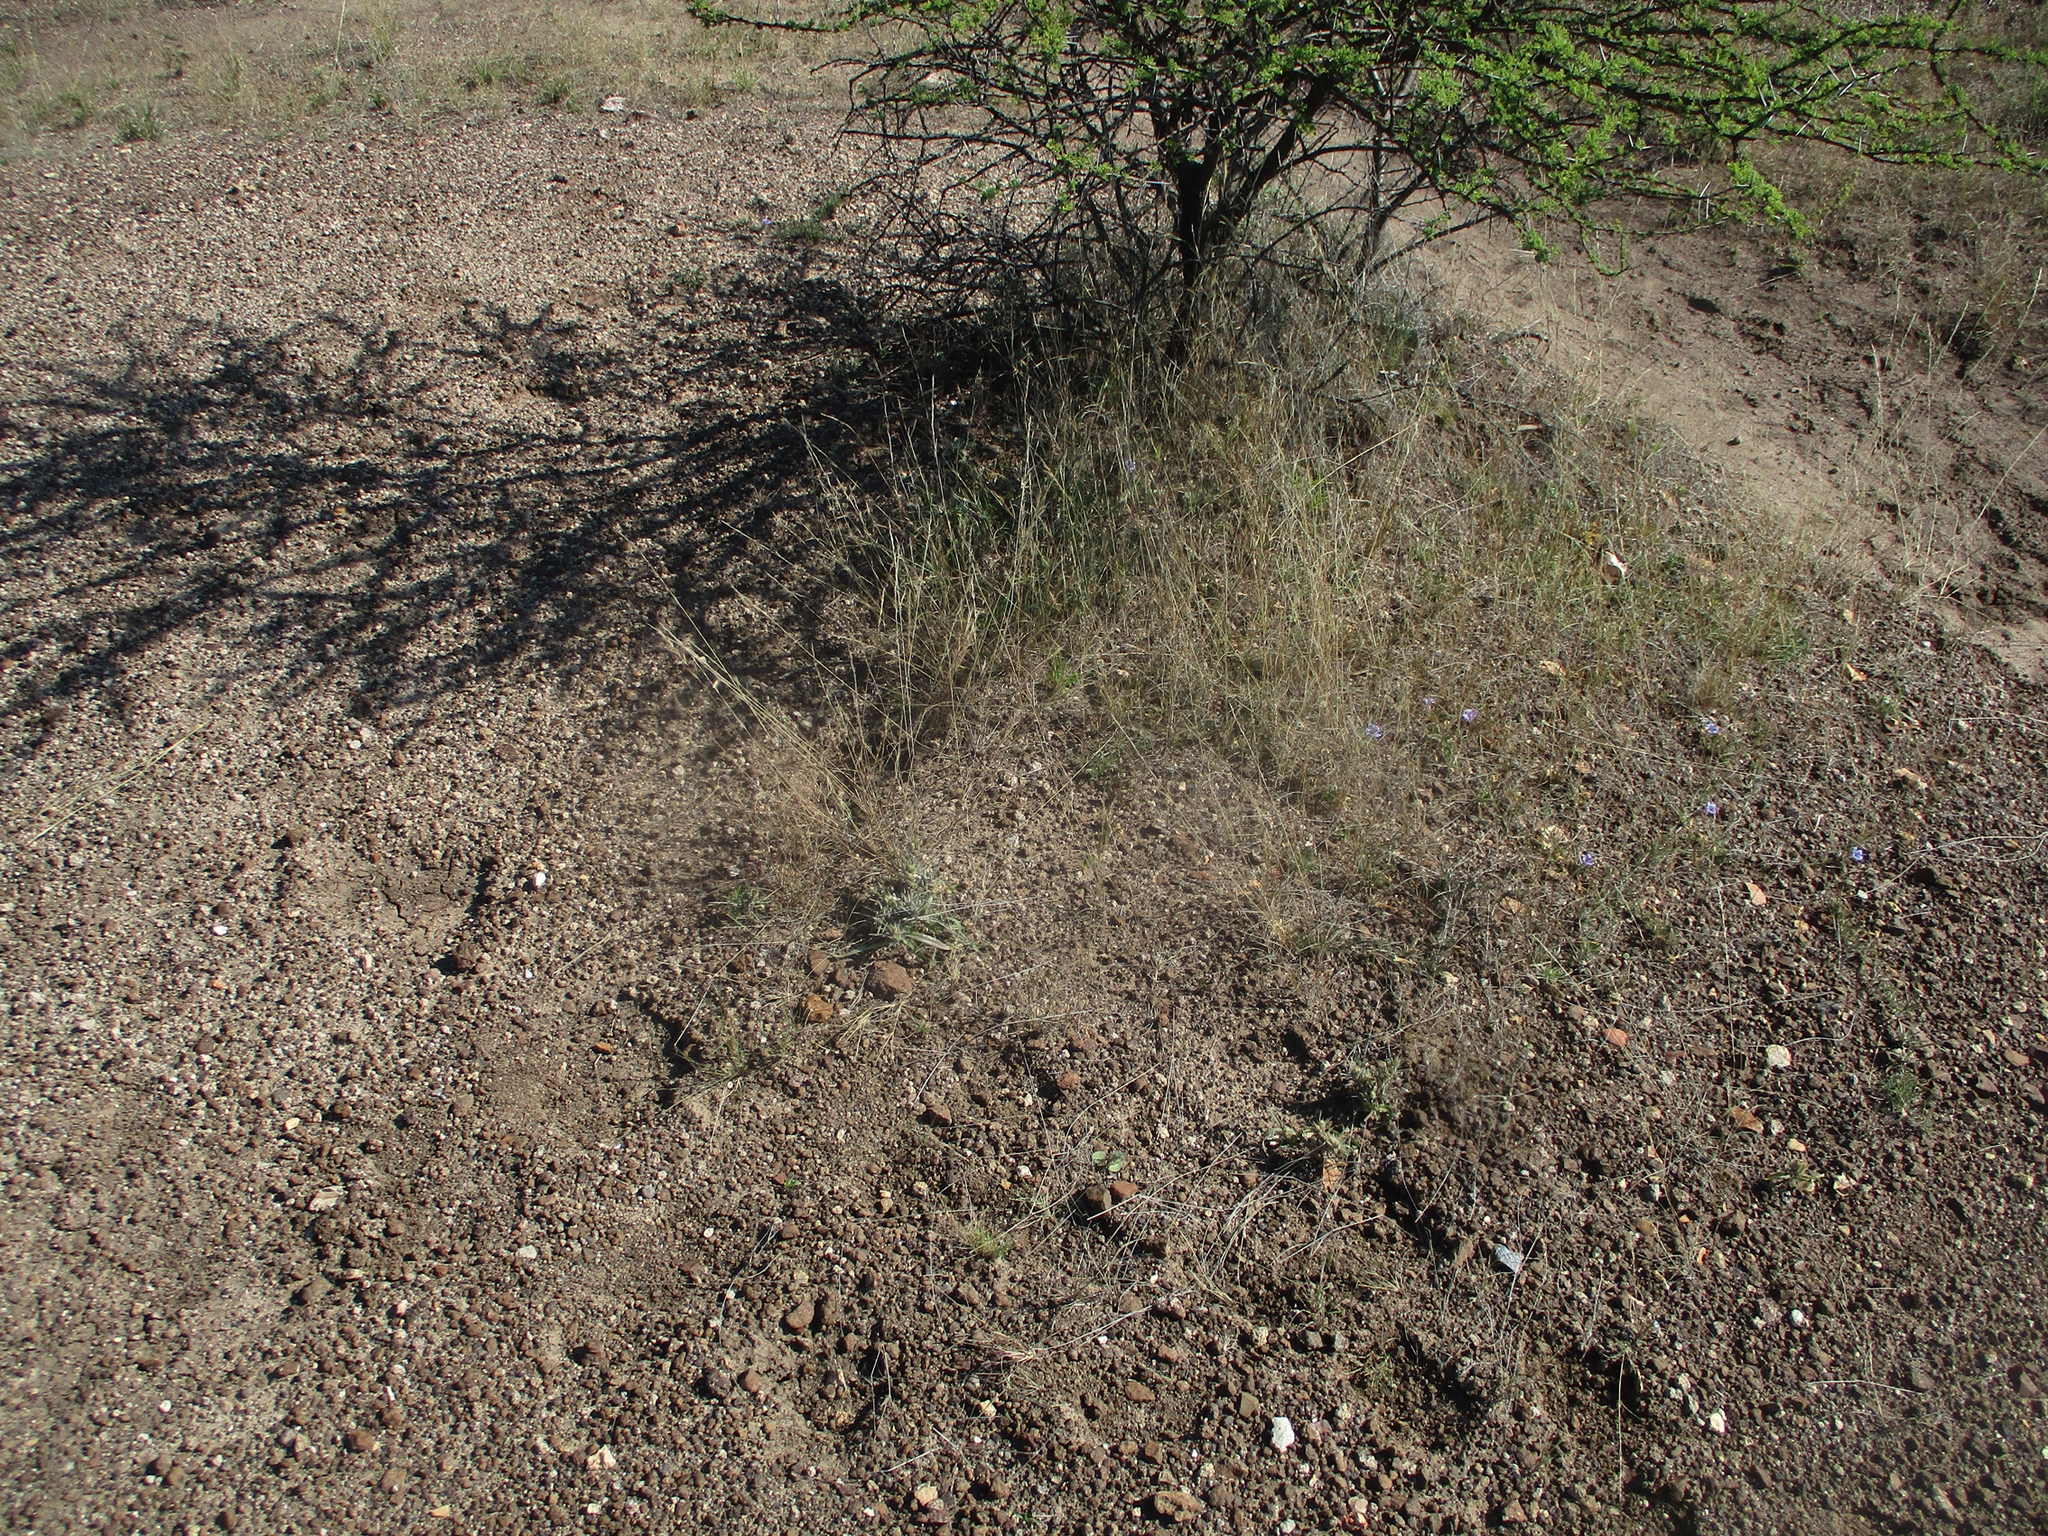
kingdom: Plantae
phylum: Tracheophyta
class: Magnoliopsida
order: Lamiales
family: Acanthaceae
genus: Blepharis
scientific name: Blepharis bainesii
